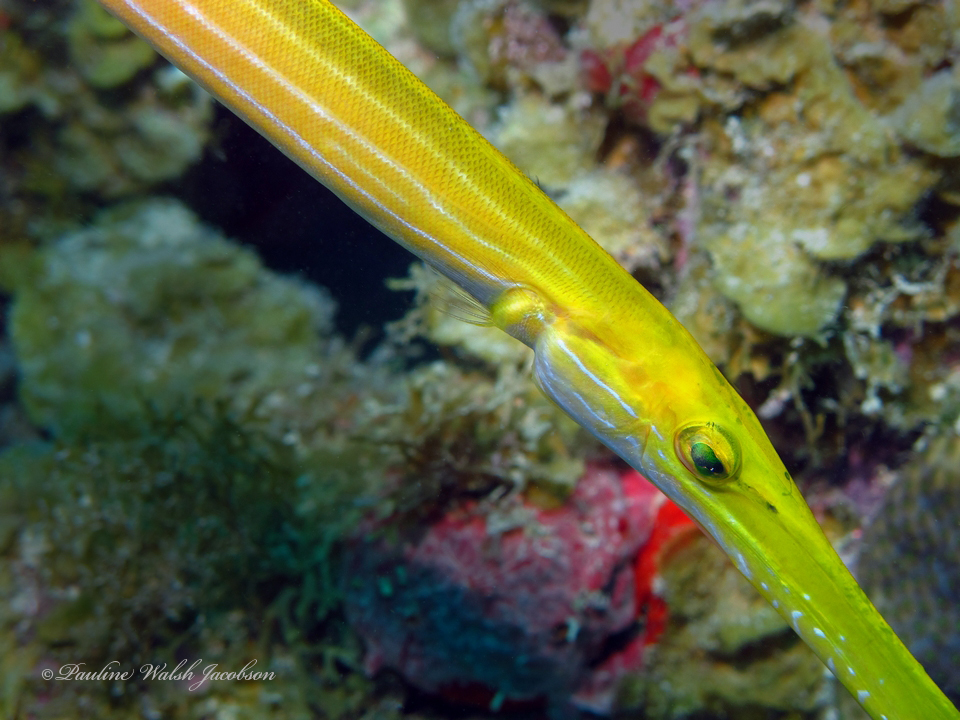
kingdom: Animalia
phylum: Chordata
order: Syngnathiformes
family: Aulostomidae
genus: Aulostomus
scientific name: Aulostomus maculatus
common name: West atlantic trumpetfish
